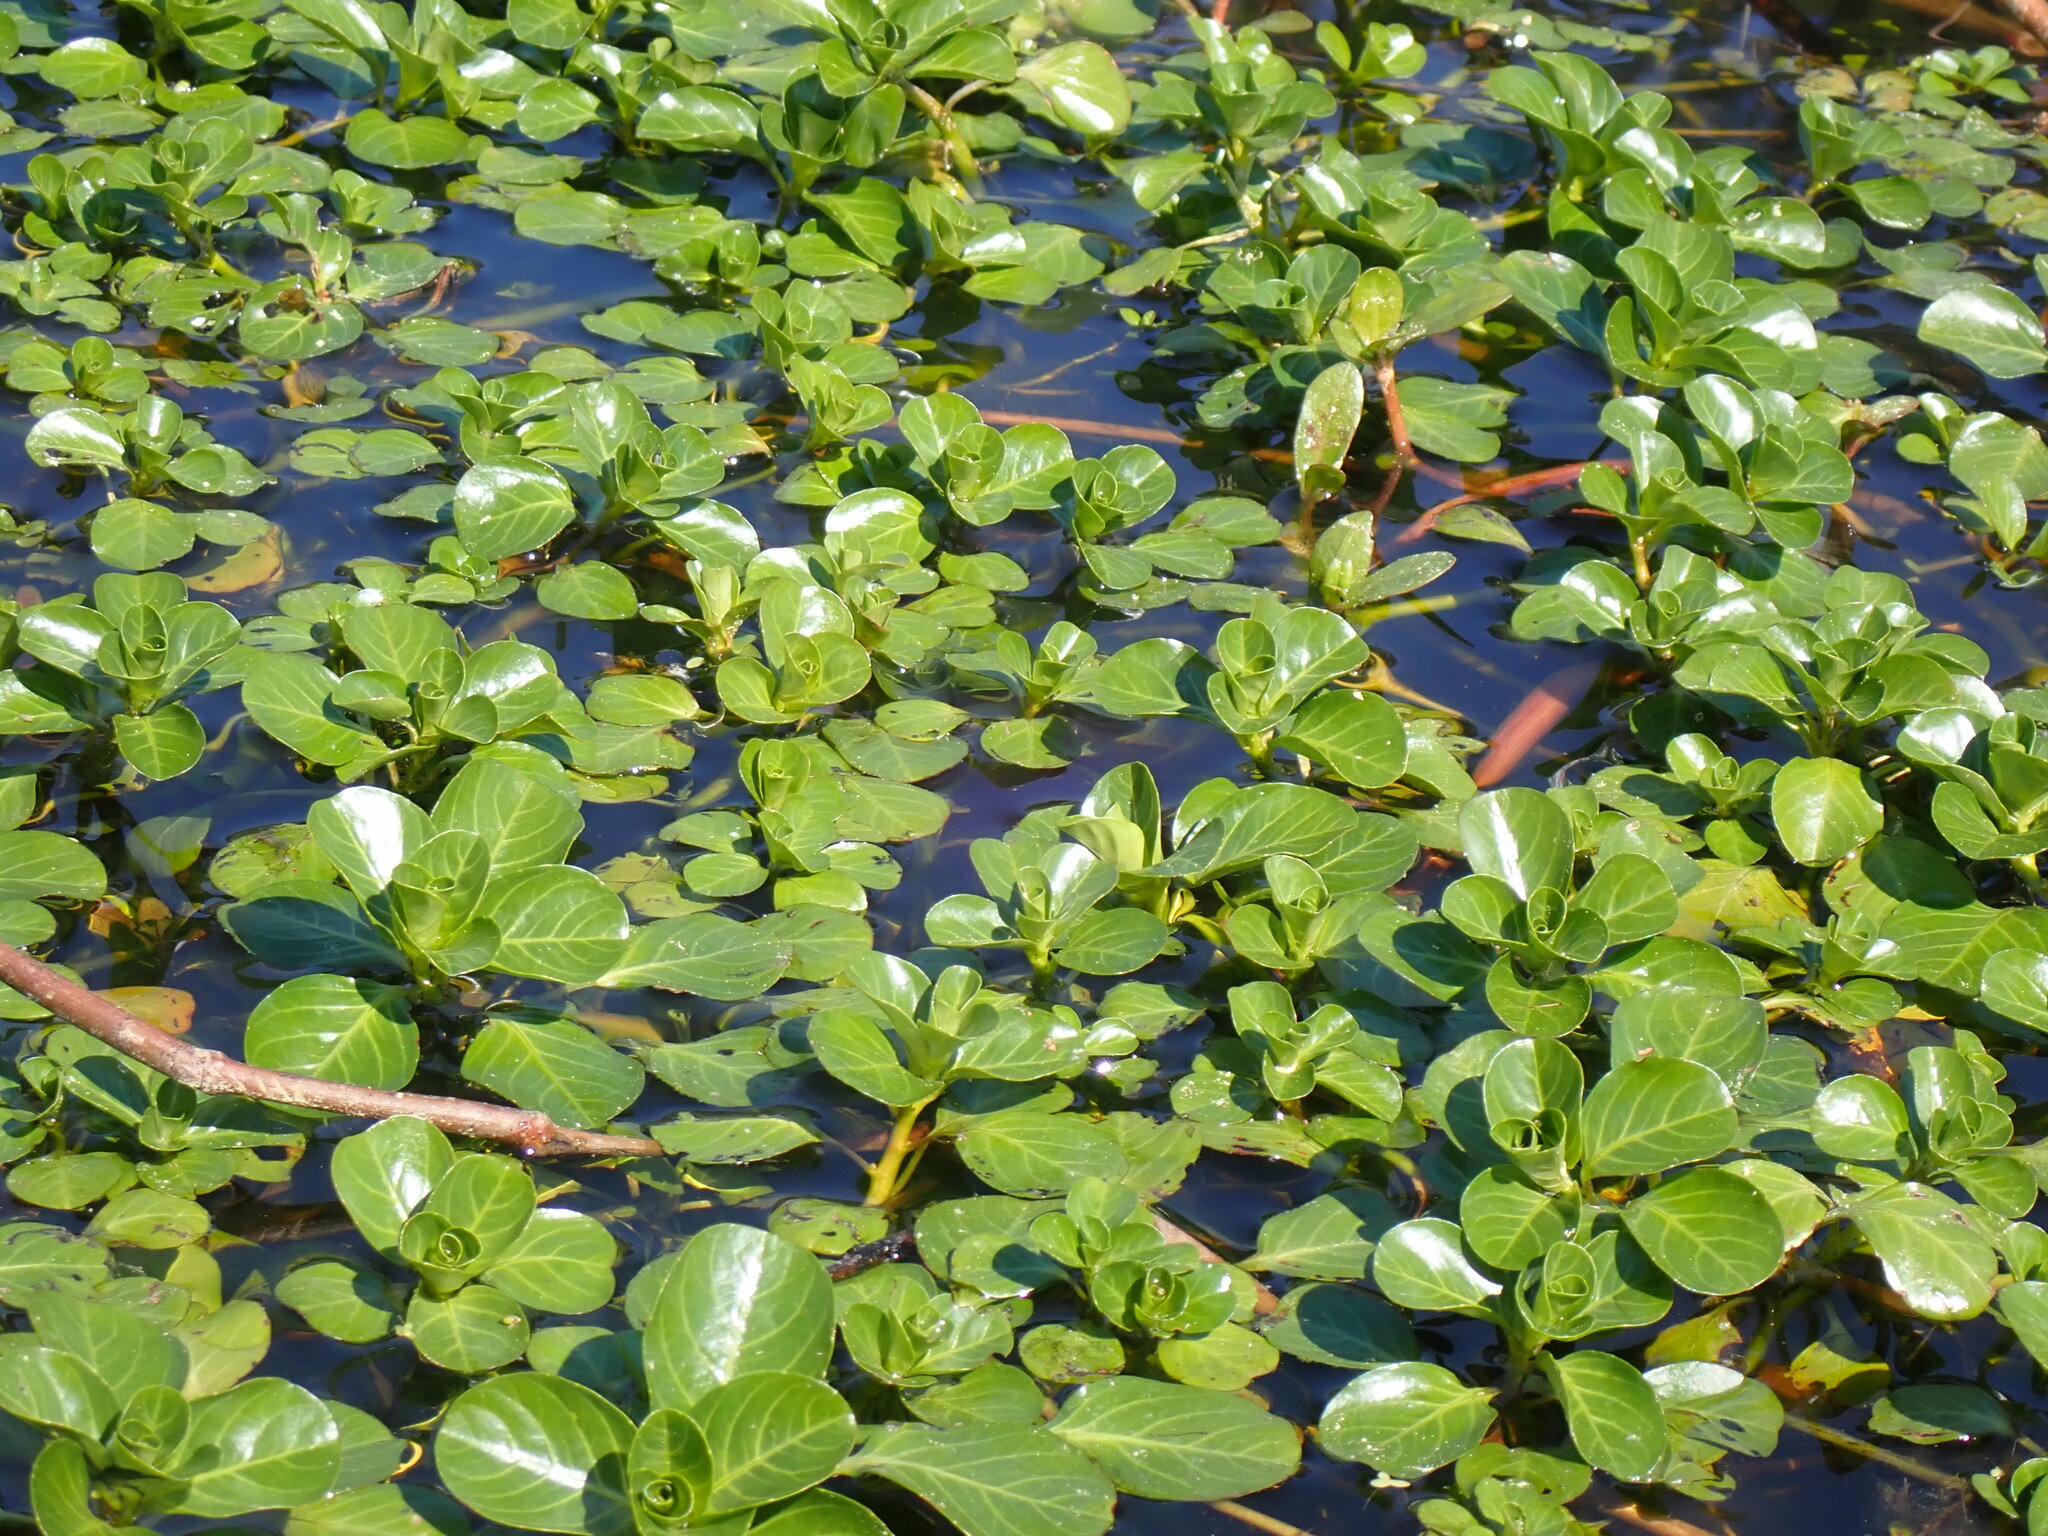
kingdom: Plantae
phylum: Tracheophyta
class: Magnoliopsida
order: Myrtales
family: Onagraceae
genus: Ludwigia
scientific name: Ludwigia peploides
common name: Floating primrose-willow
